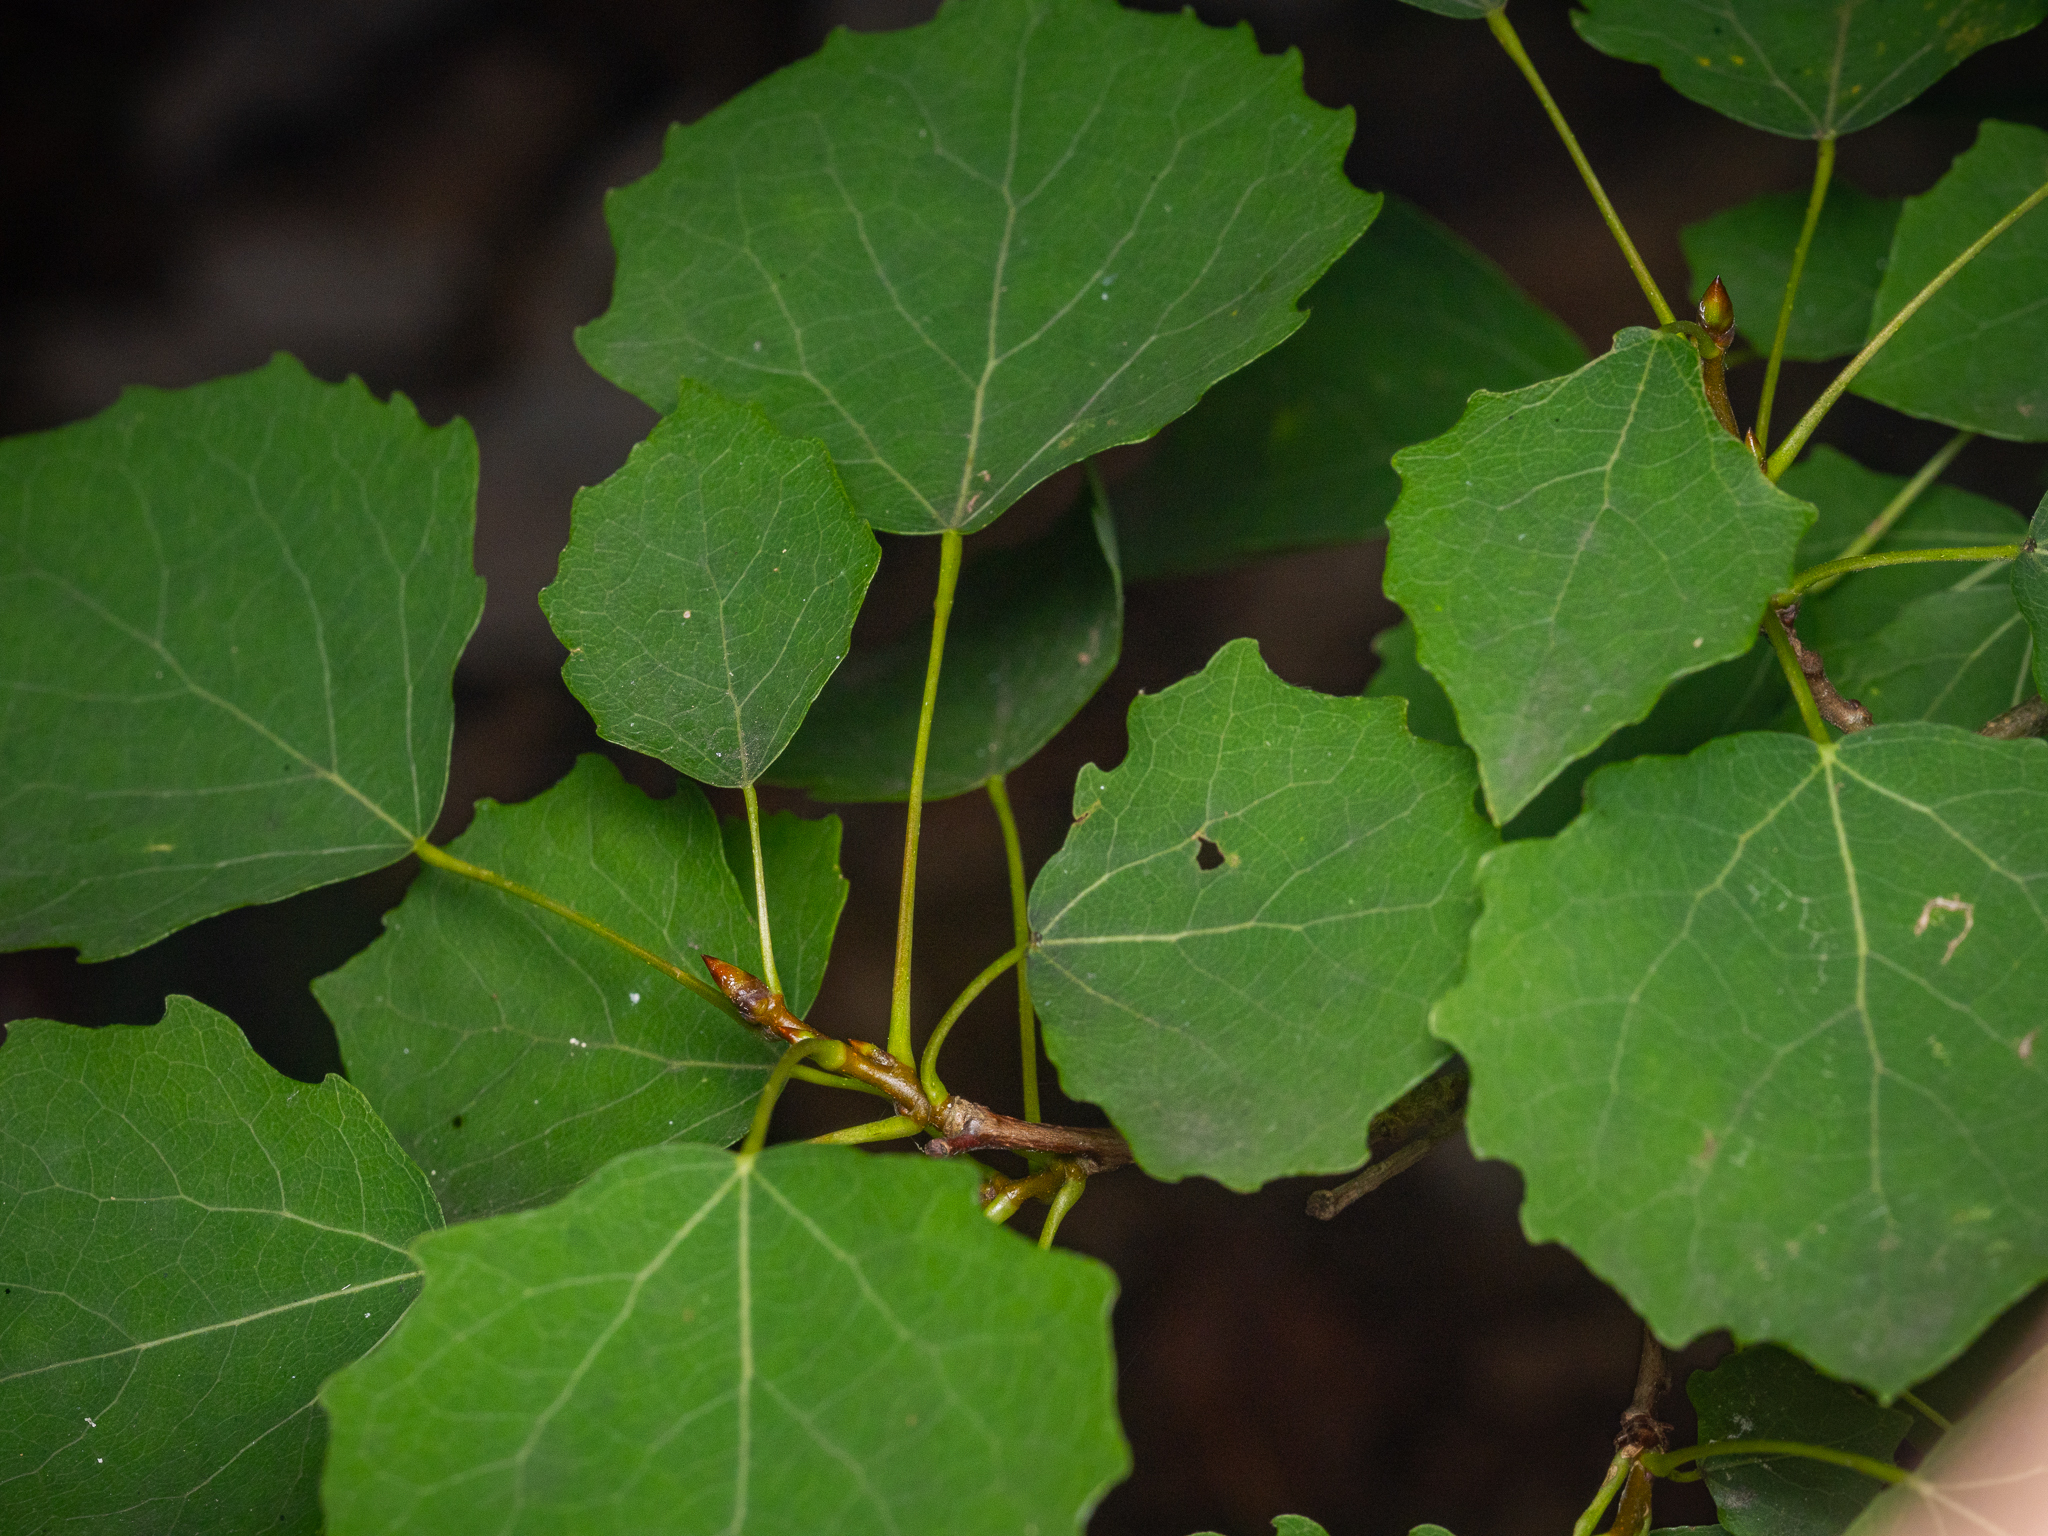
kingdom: Plantae
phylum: Tracheophyta
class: Magnoliopsida
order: Malpighiales
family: Salicaceae
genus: Populus
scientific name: Populus tremula
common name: European aspen
